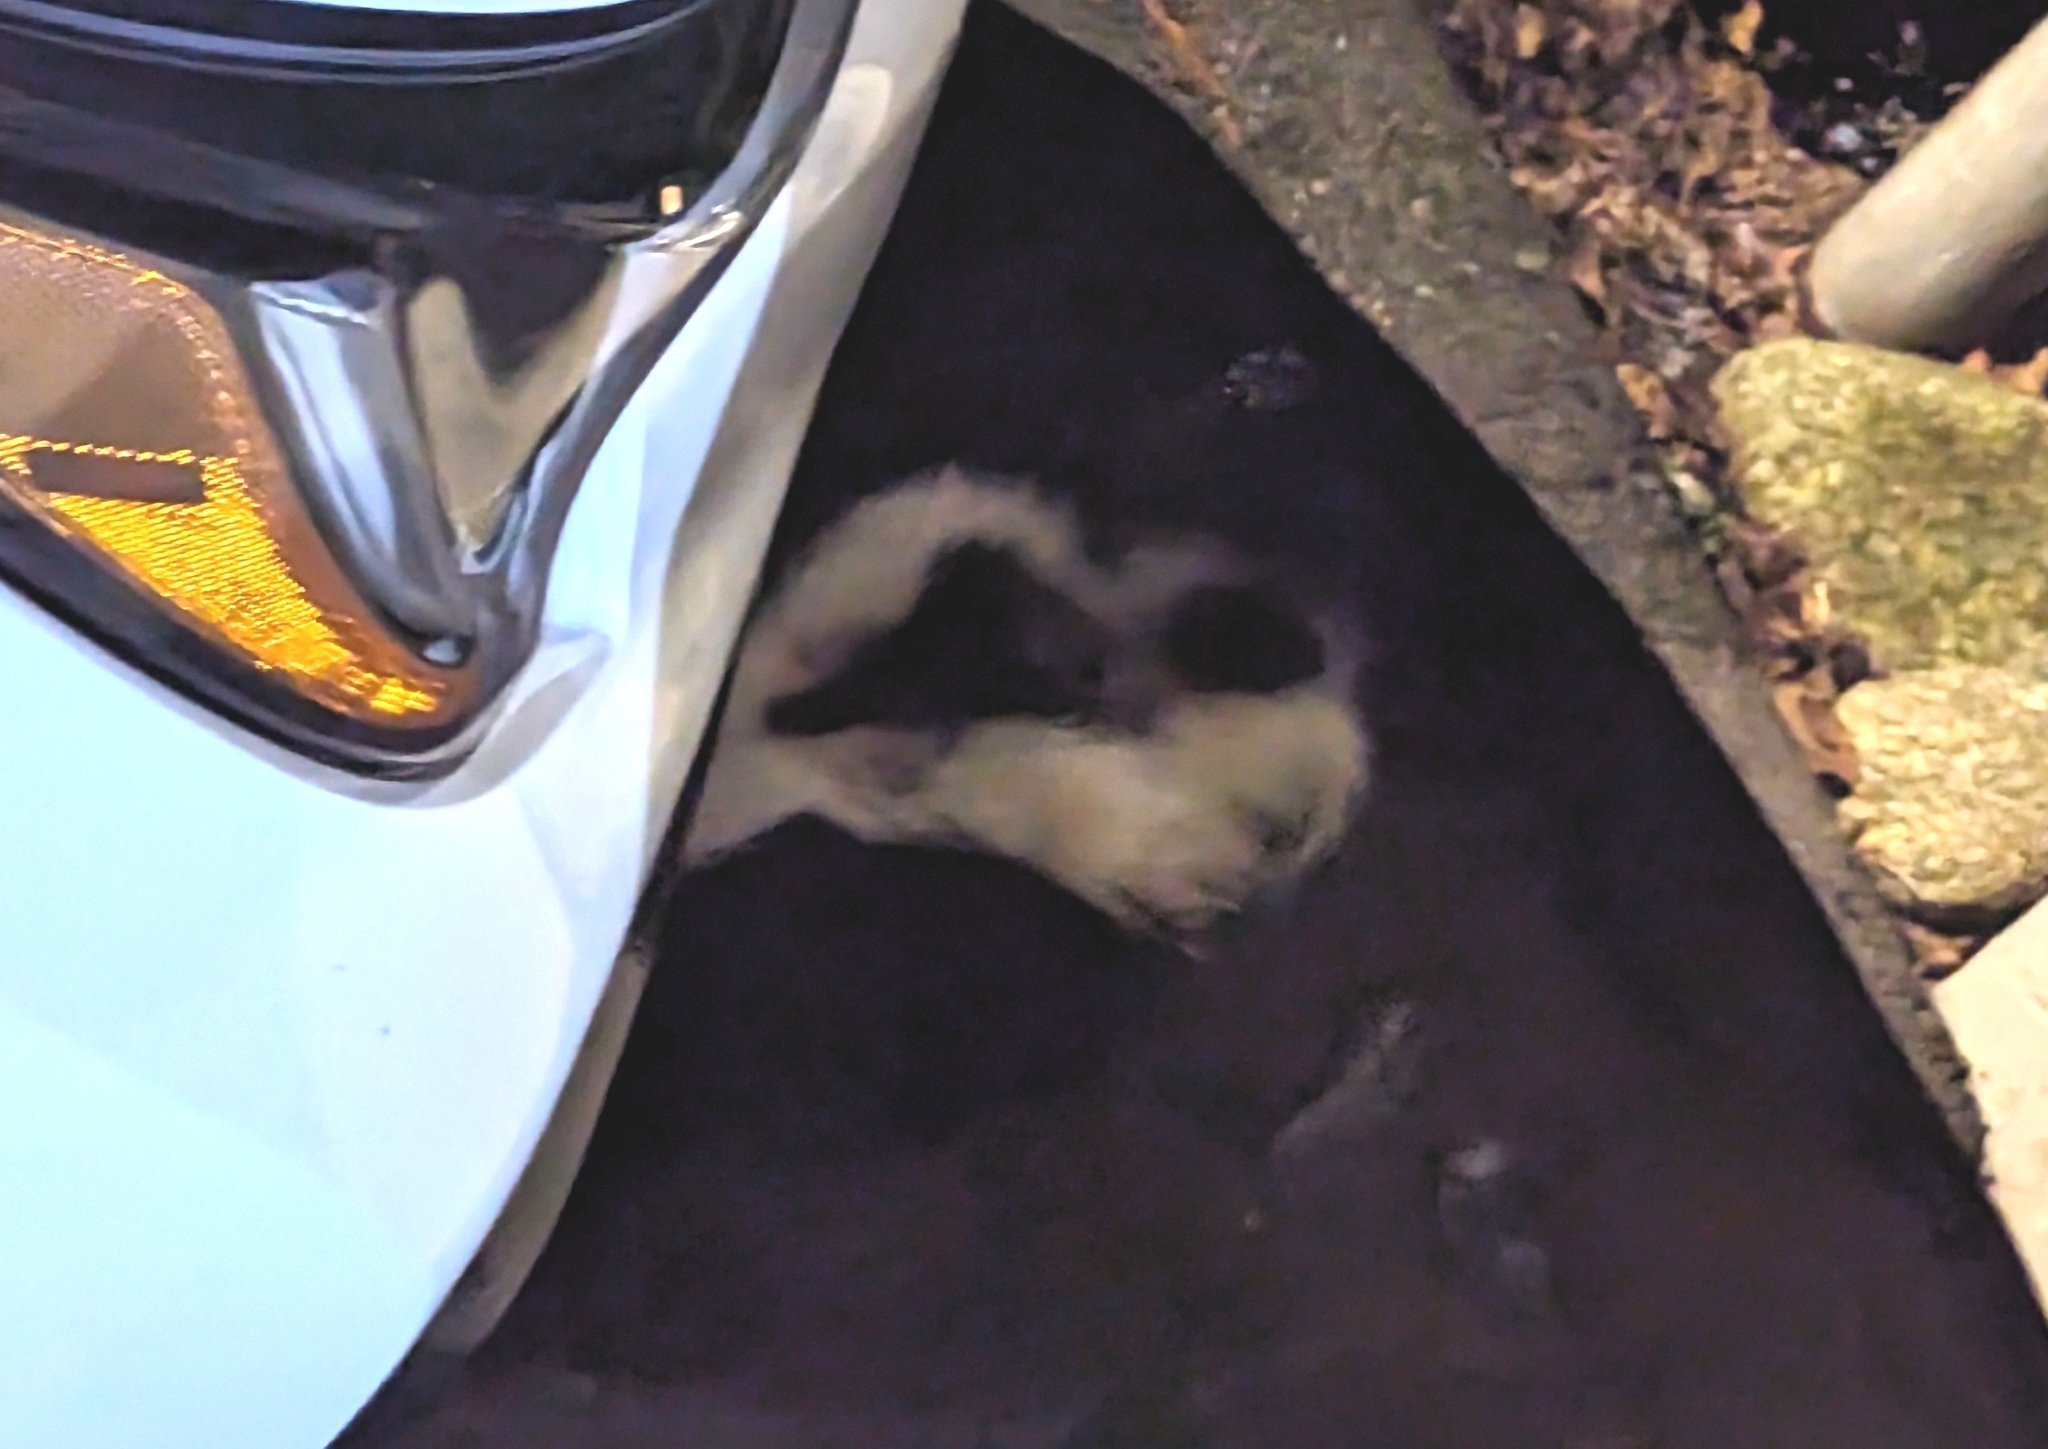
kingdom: Animalia
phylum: Chordata
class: Mammalia
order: Carnivora
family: Mephitidae
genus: Mephitis
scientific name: Mephitis mephitis
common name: Striped skunk
